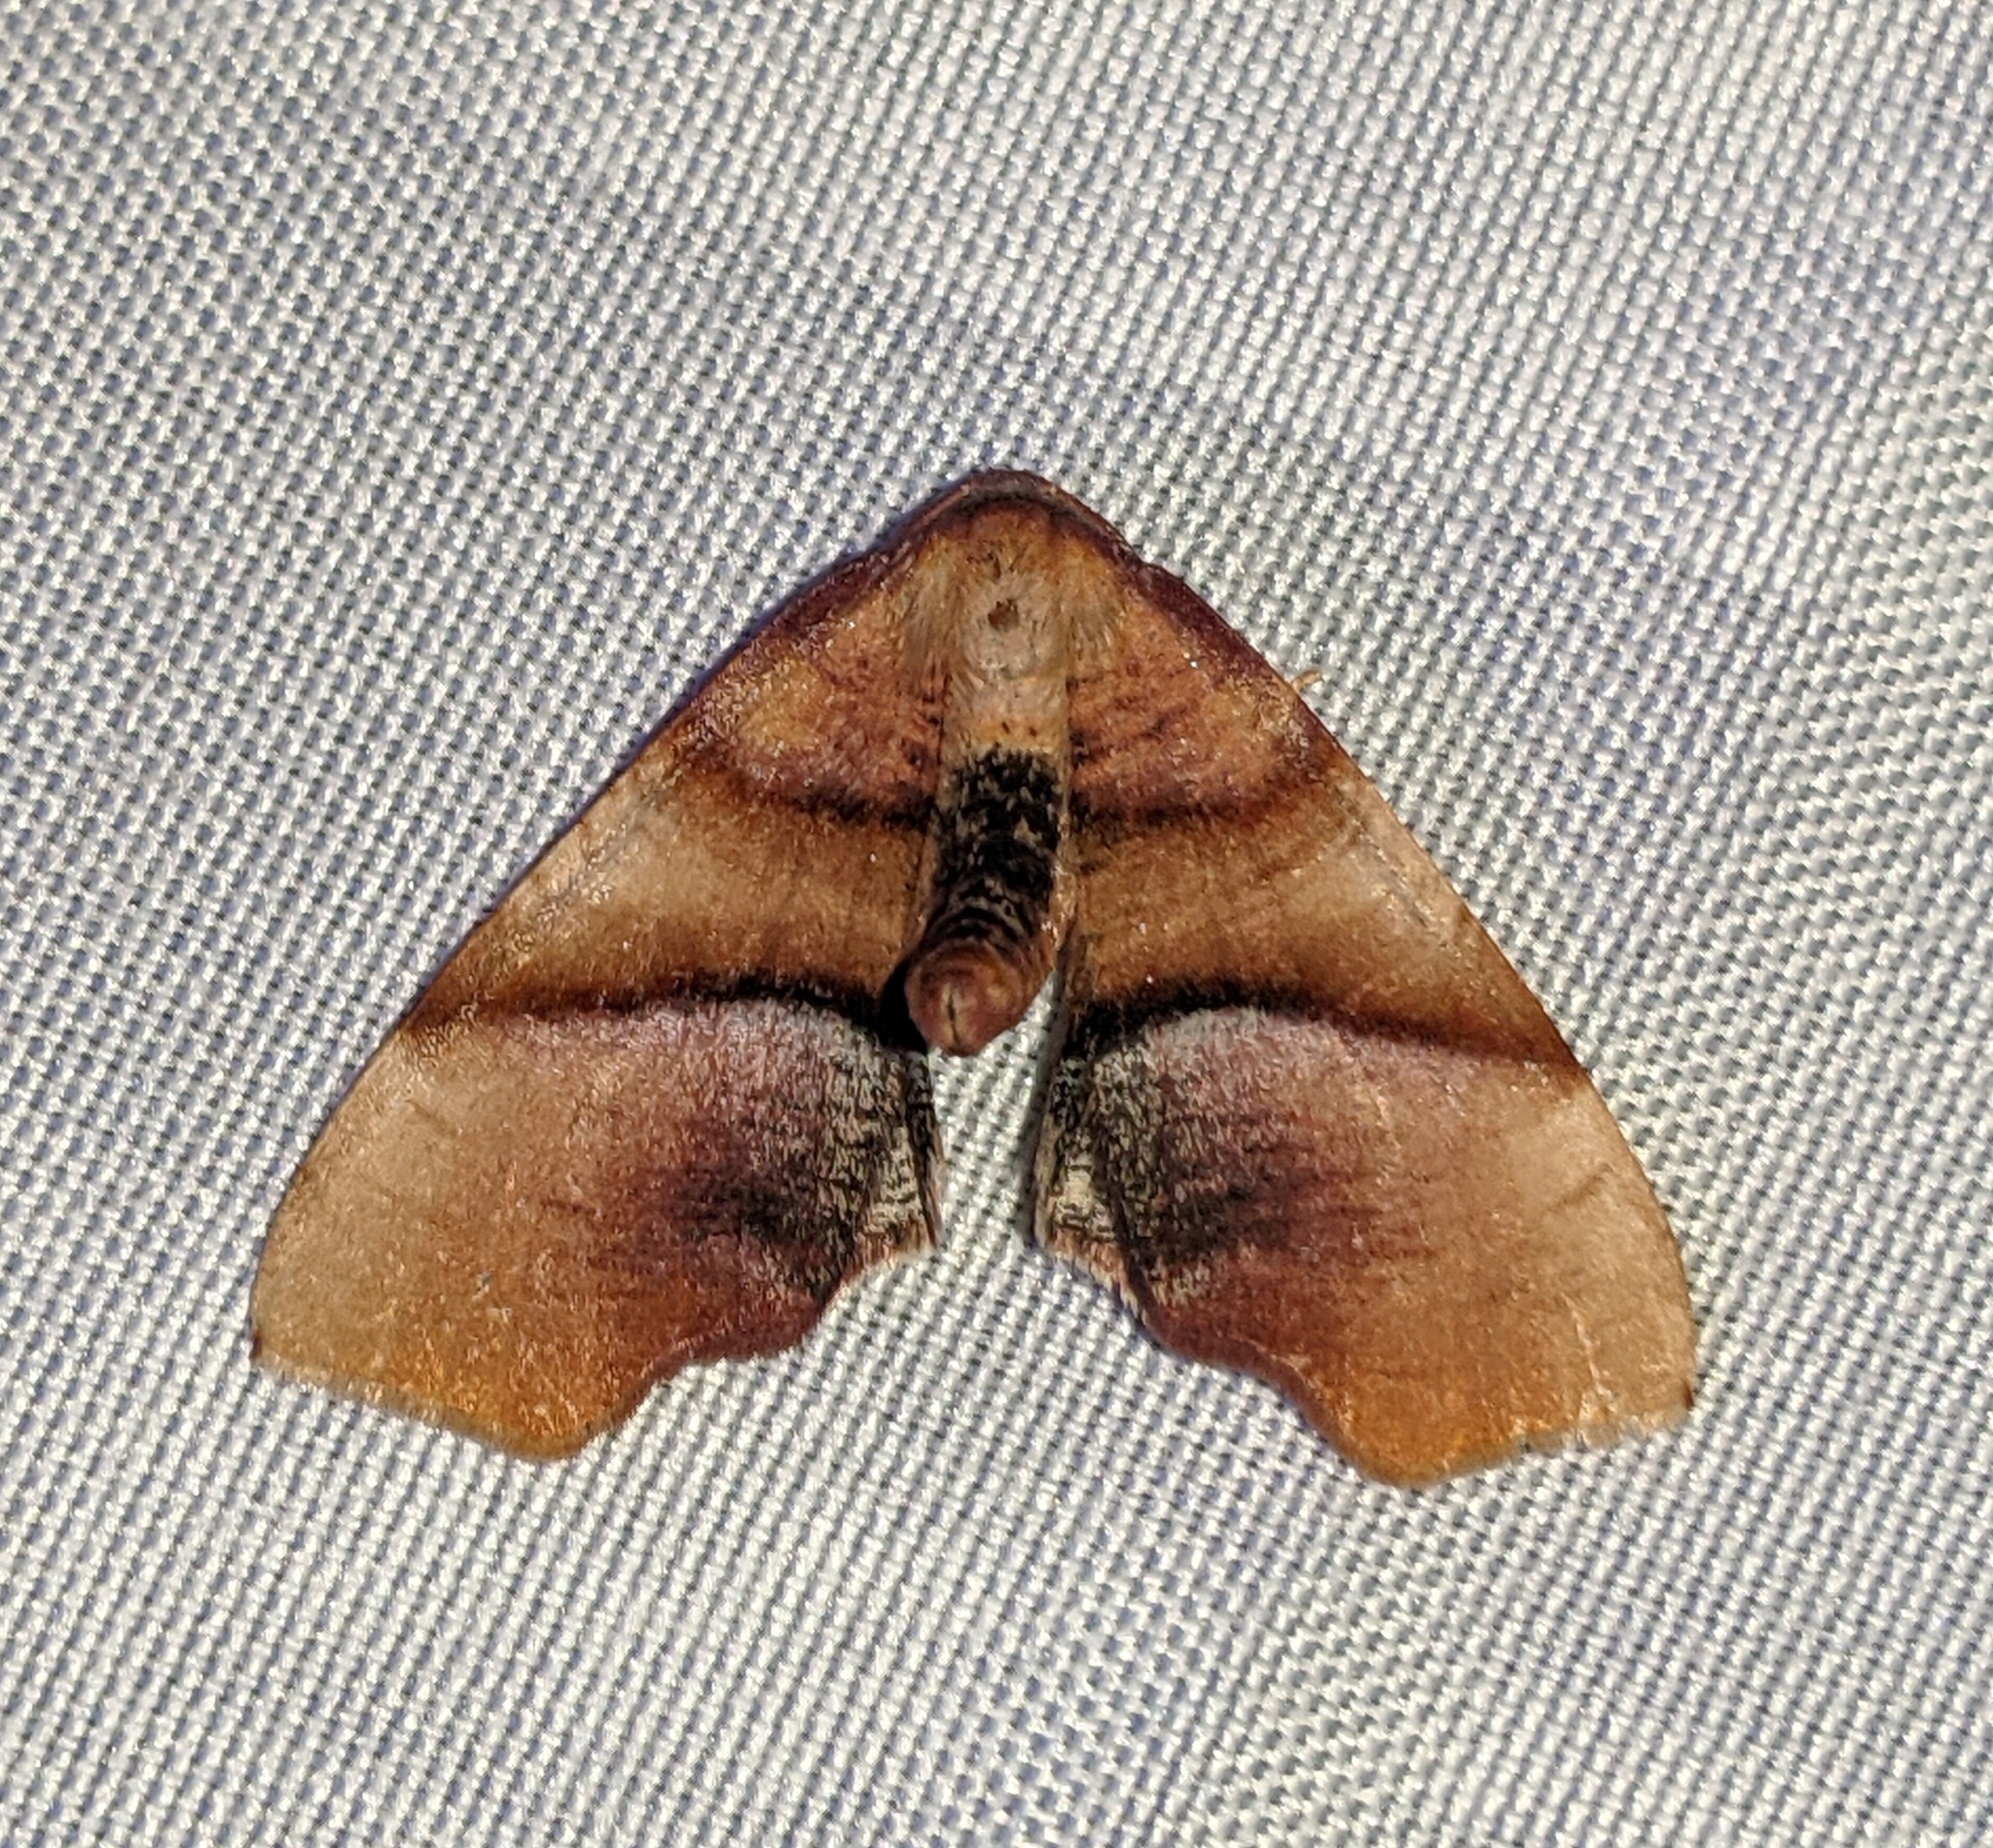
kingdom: Animalia
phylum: Arthropoda
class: Insecta
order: Lepidoptera
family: Geometridae
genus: Plagodis
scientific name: Plagodis phlogosaria
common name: Straight-lined plagodis
